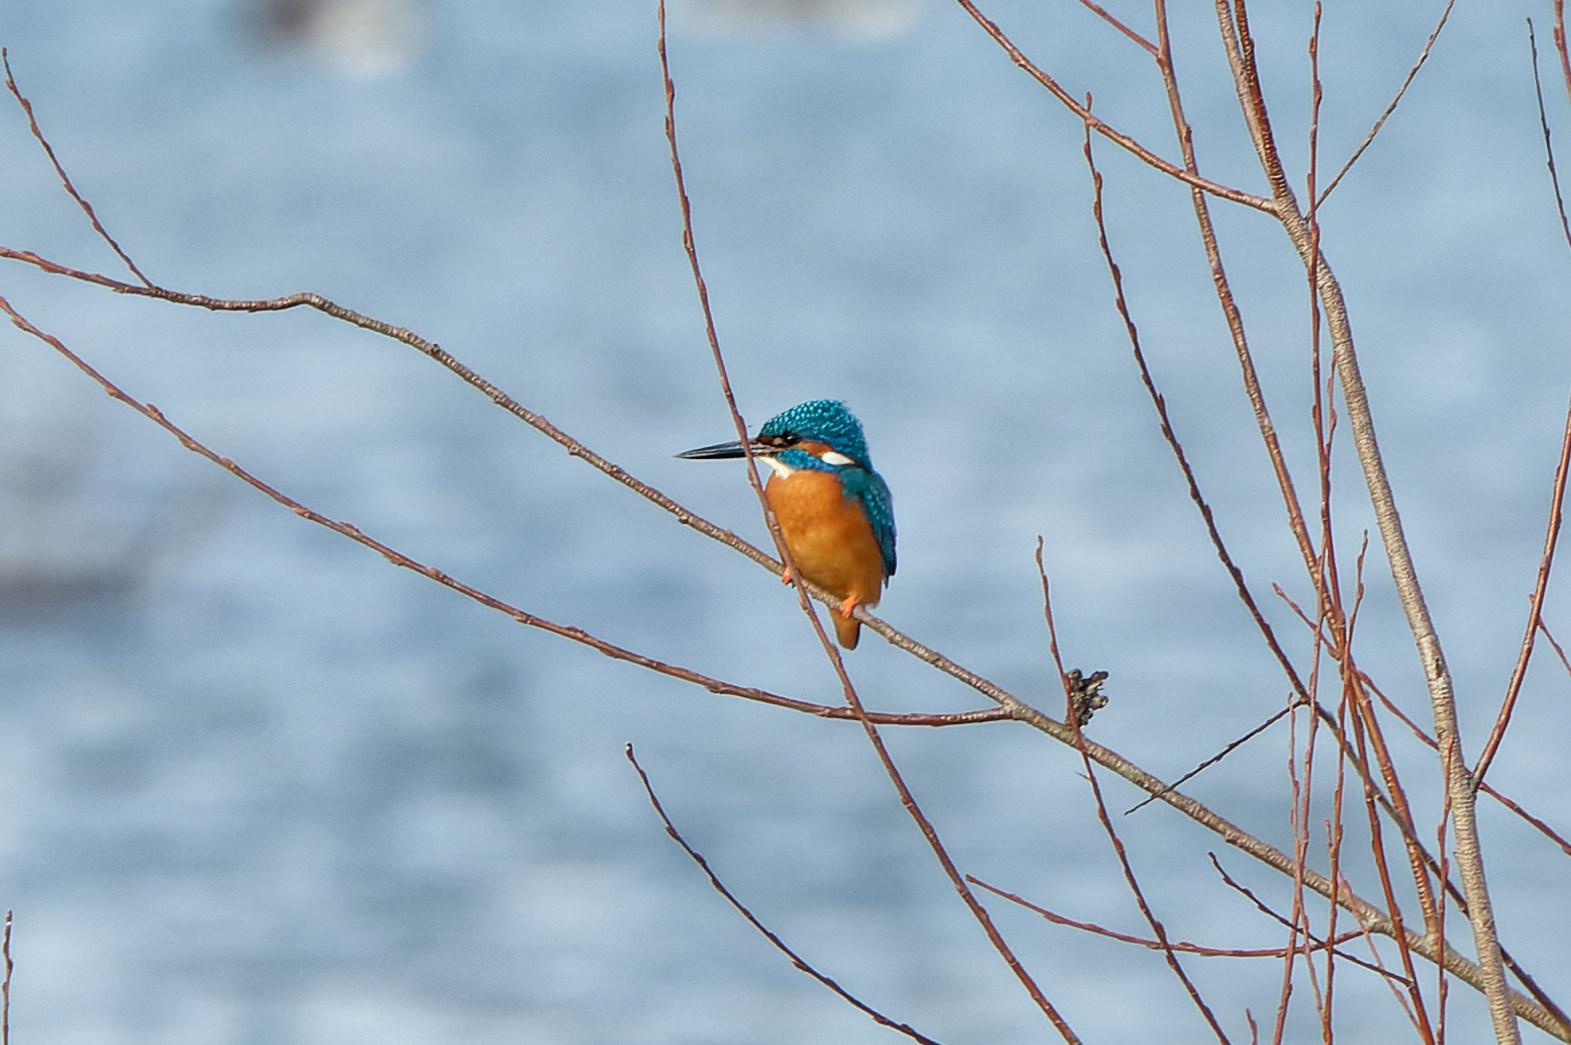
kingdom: Animalia
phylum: Chordata
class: Aves
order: Coraciiformes
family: Alcedinidae
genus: Alcedo
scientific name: Alcedo atthis
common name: Common kingfisher
